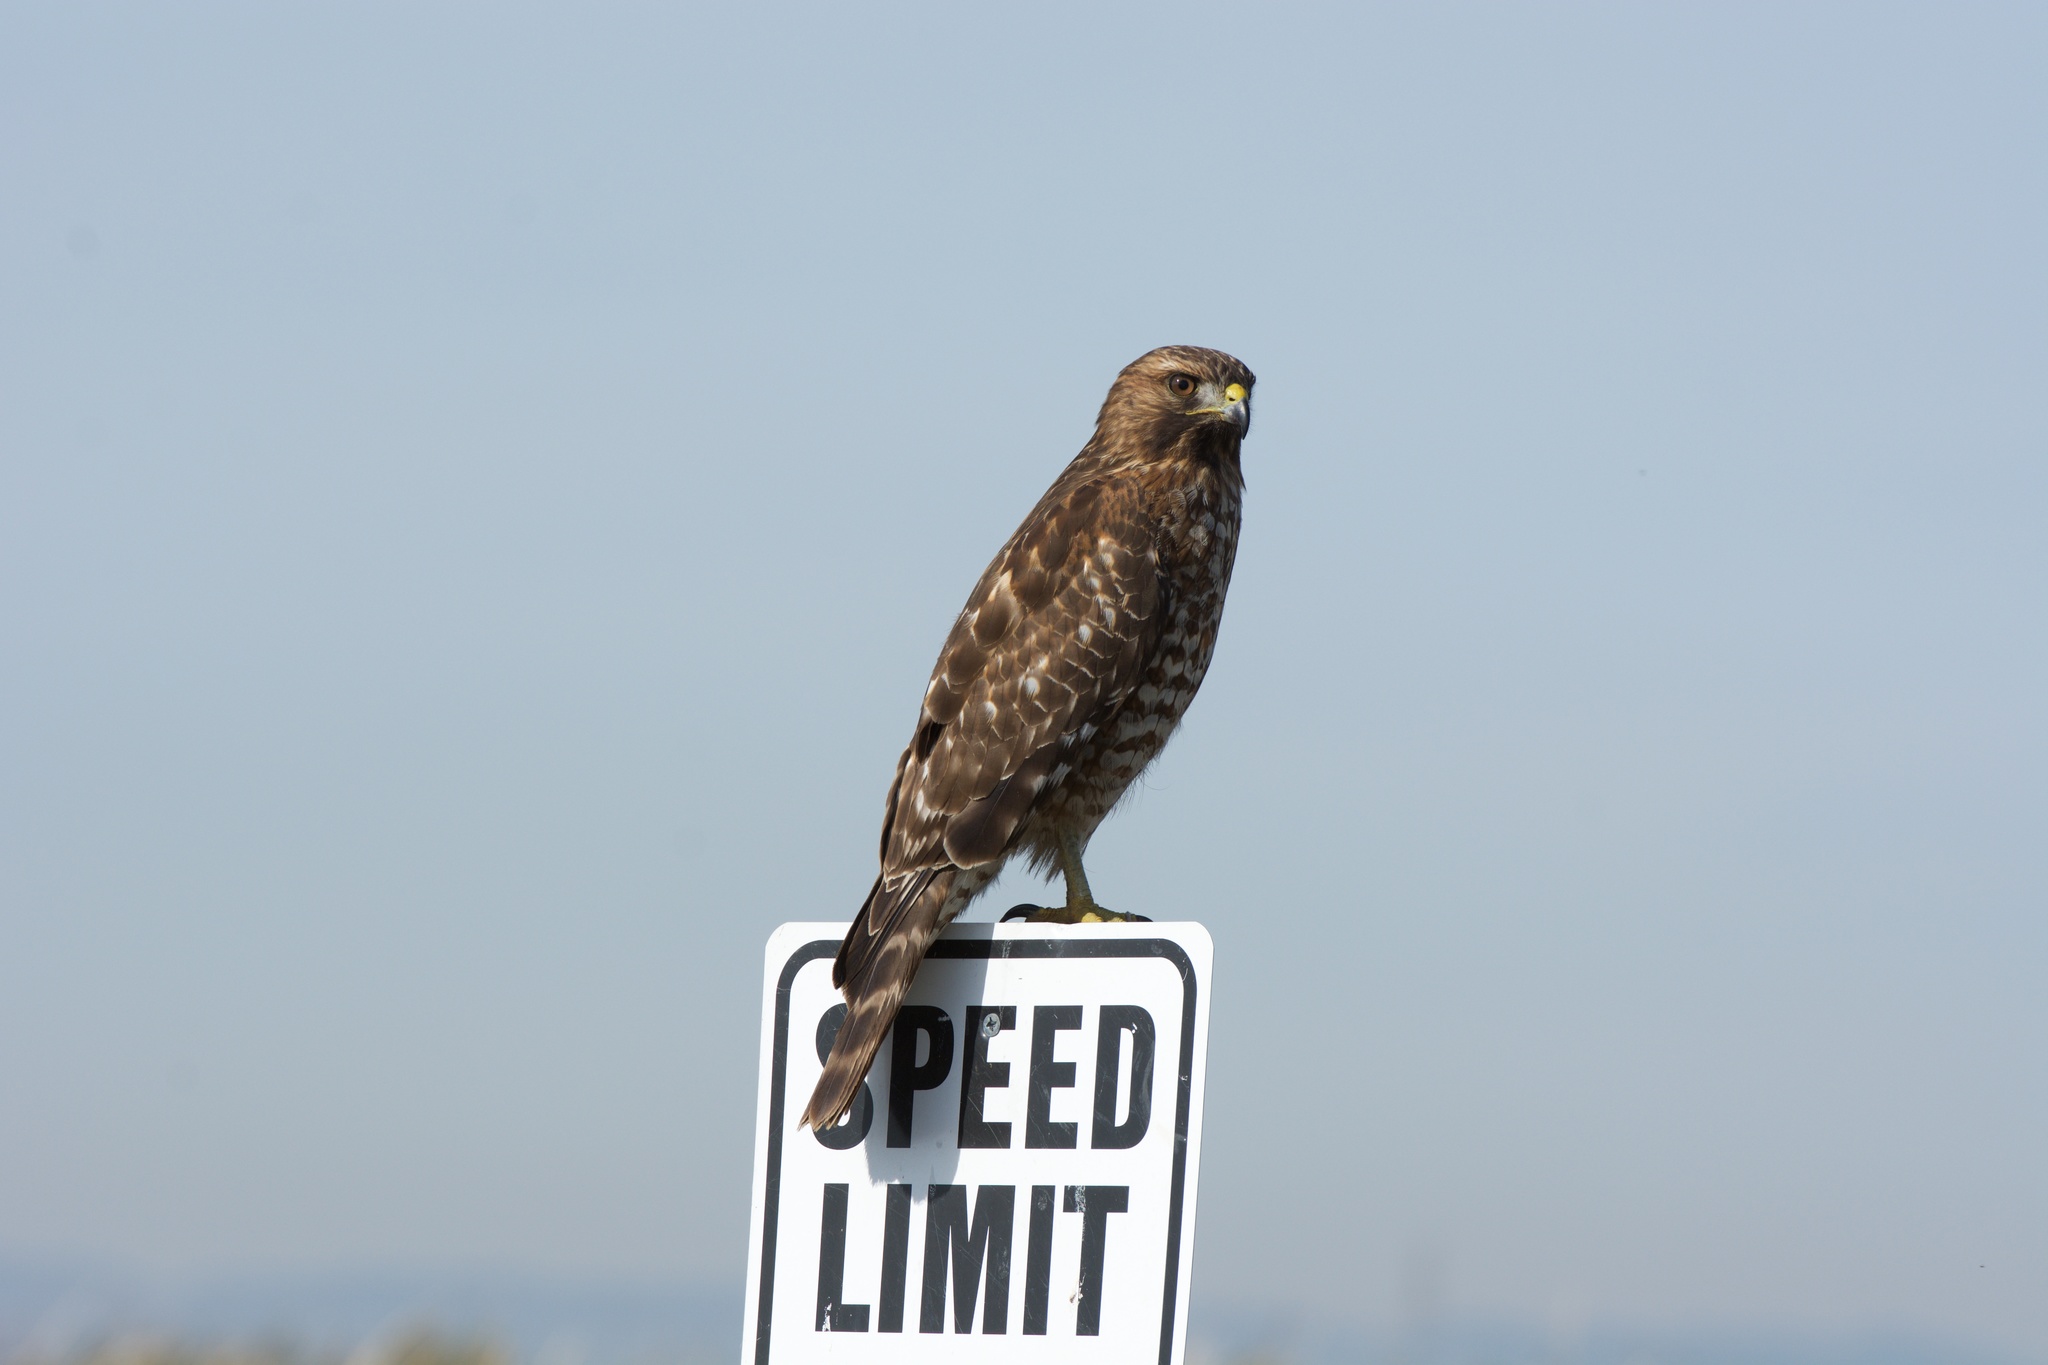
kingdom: Animalia
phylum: Chordata
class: Aves
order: Accipitriformes
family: Accipitridae
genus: Buteo
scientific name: Buteo lineatus
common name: Red-shouldered hawk
